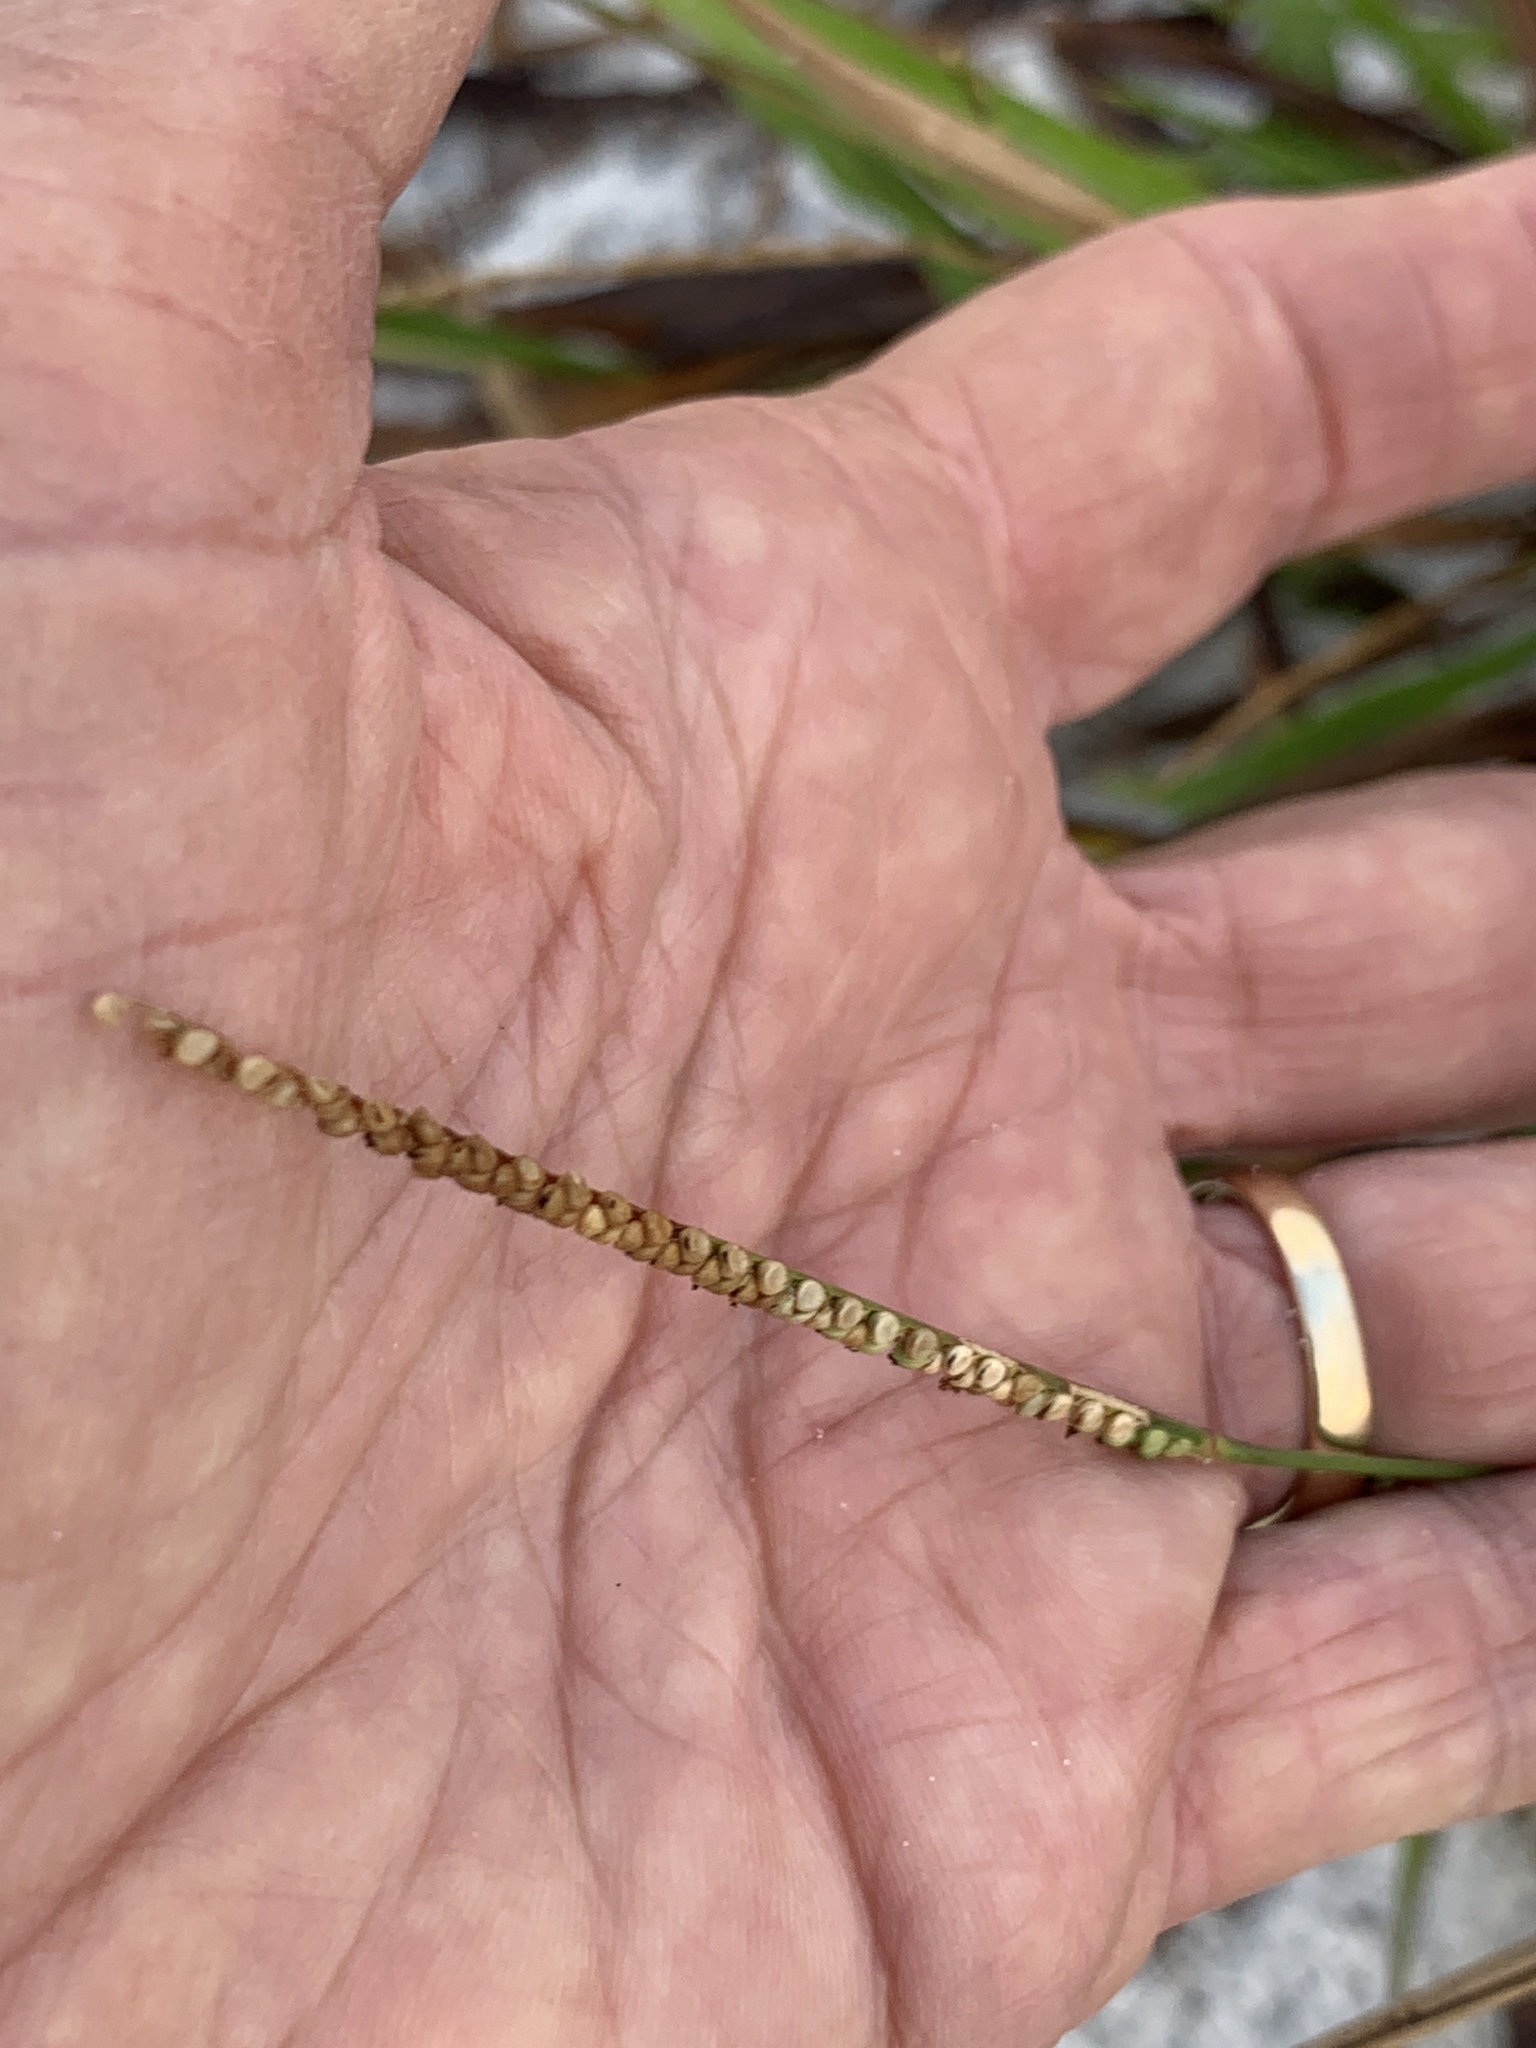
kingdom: Plantae
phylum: Tracheophyta
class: Liliopsida
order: Poales
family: Poaceae
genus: Paspalum
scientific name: Paspalum setaceum
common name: Slender paspalum
